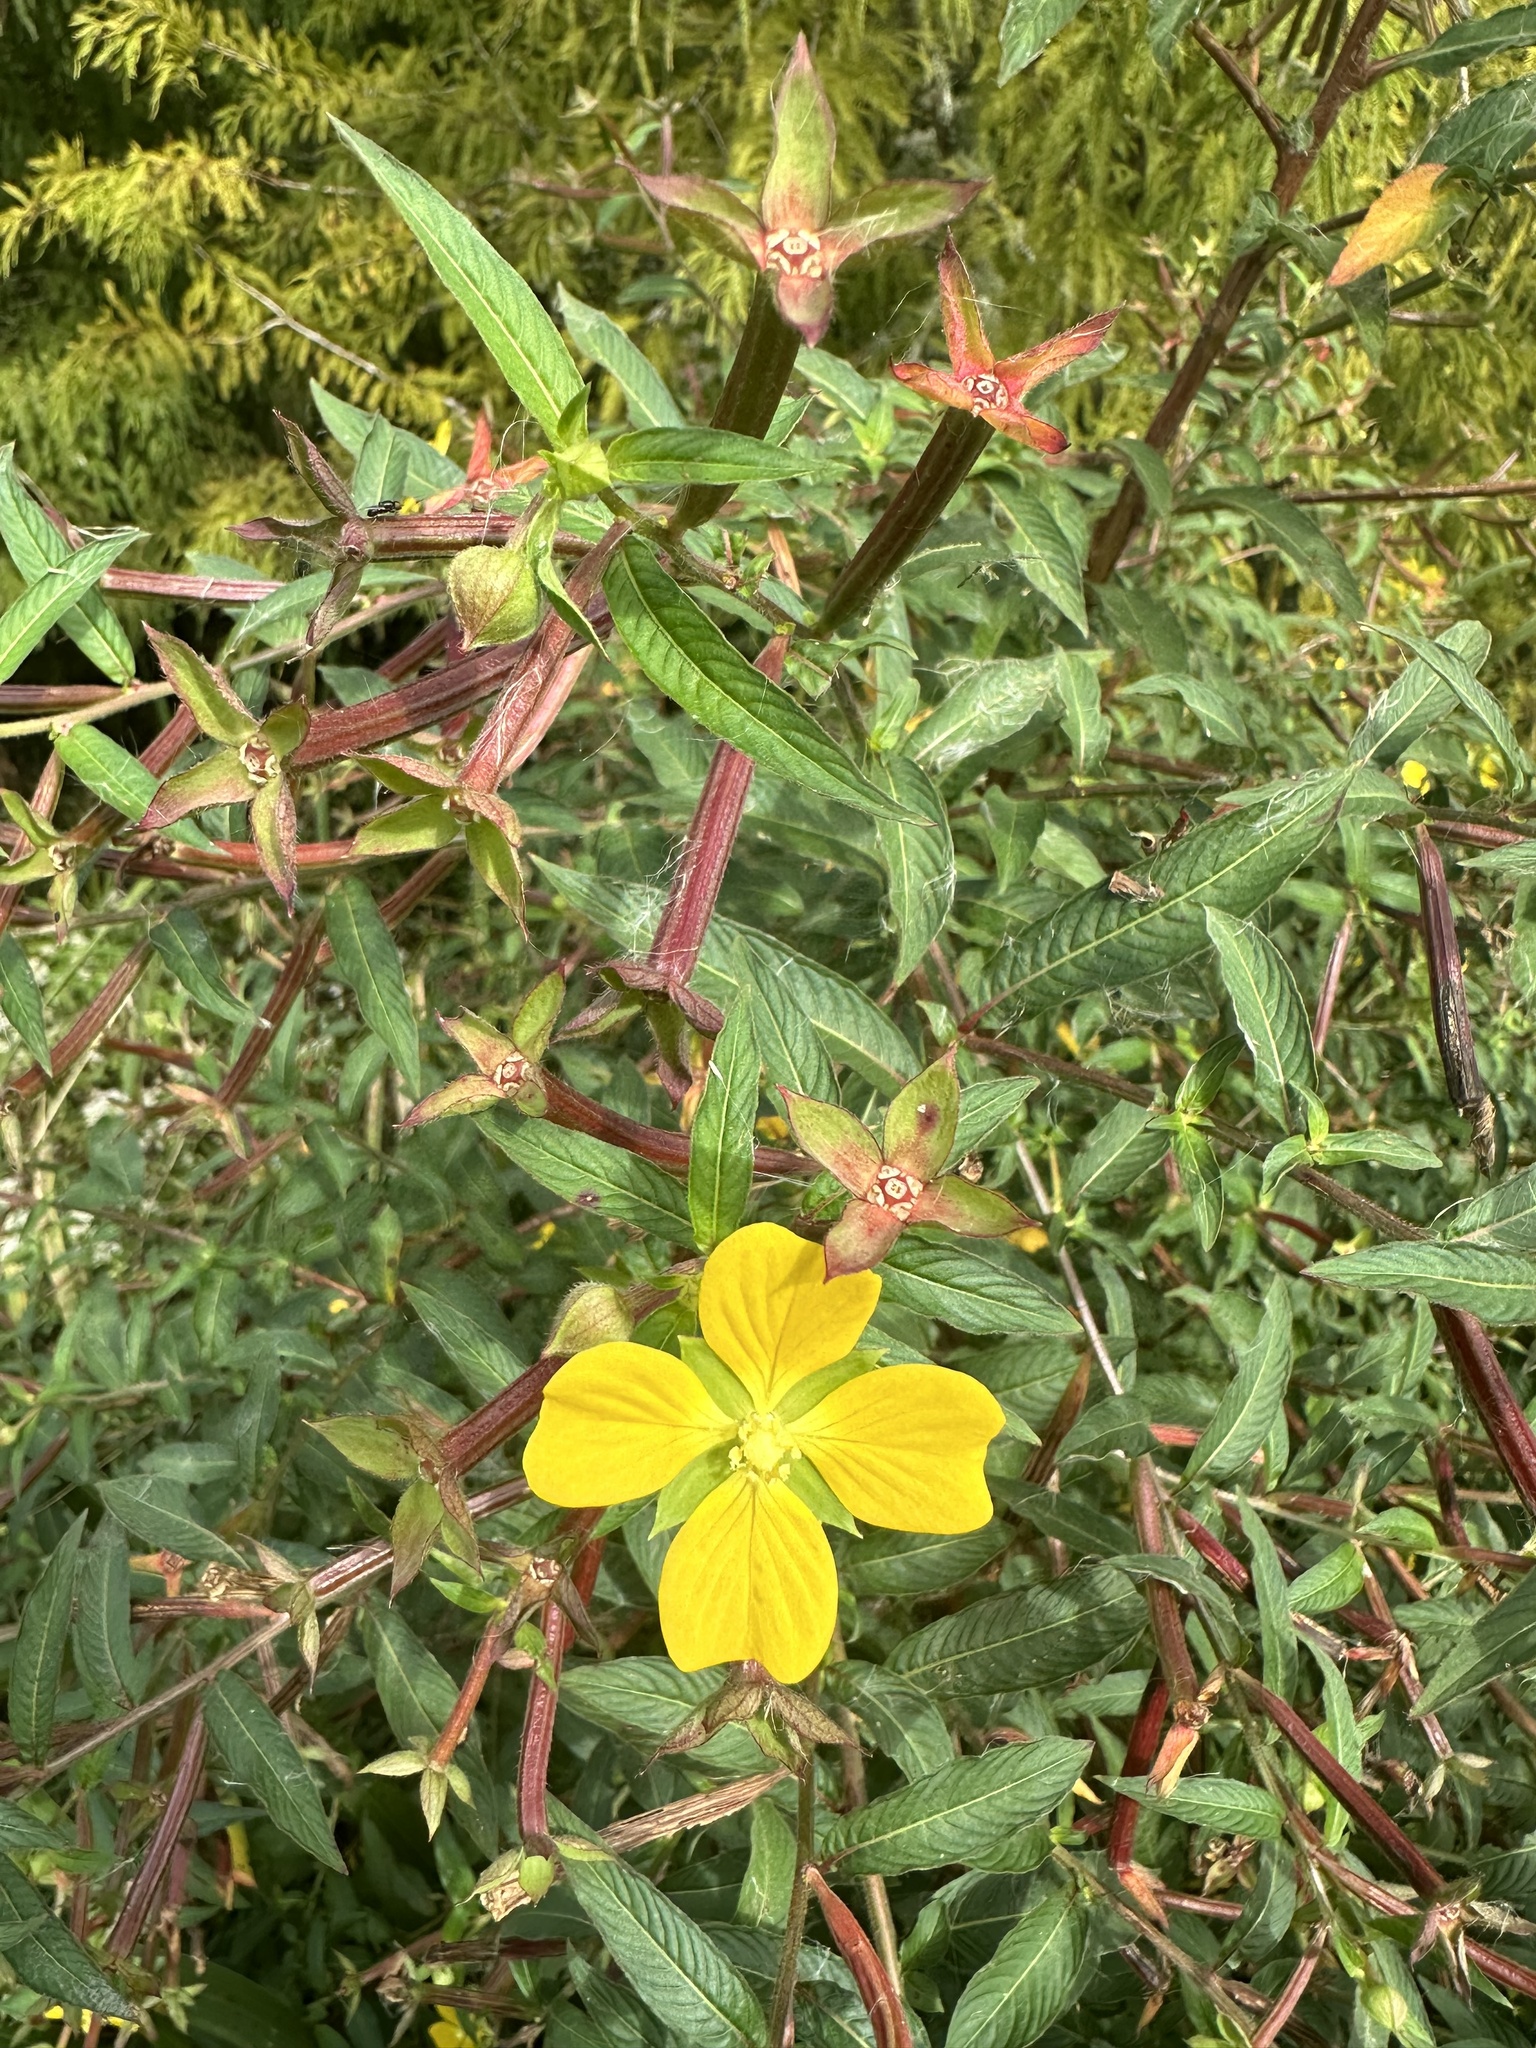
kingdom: Plantae
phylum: Tracheophyta
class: Magnoliopsida
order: Myrtales
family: Onagraceae
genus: Ludwigia
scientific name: Ludwigia octovalvis
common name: Water-primrose
